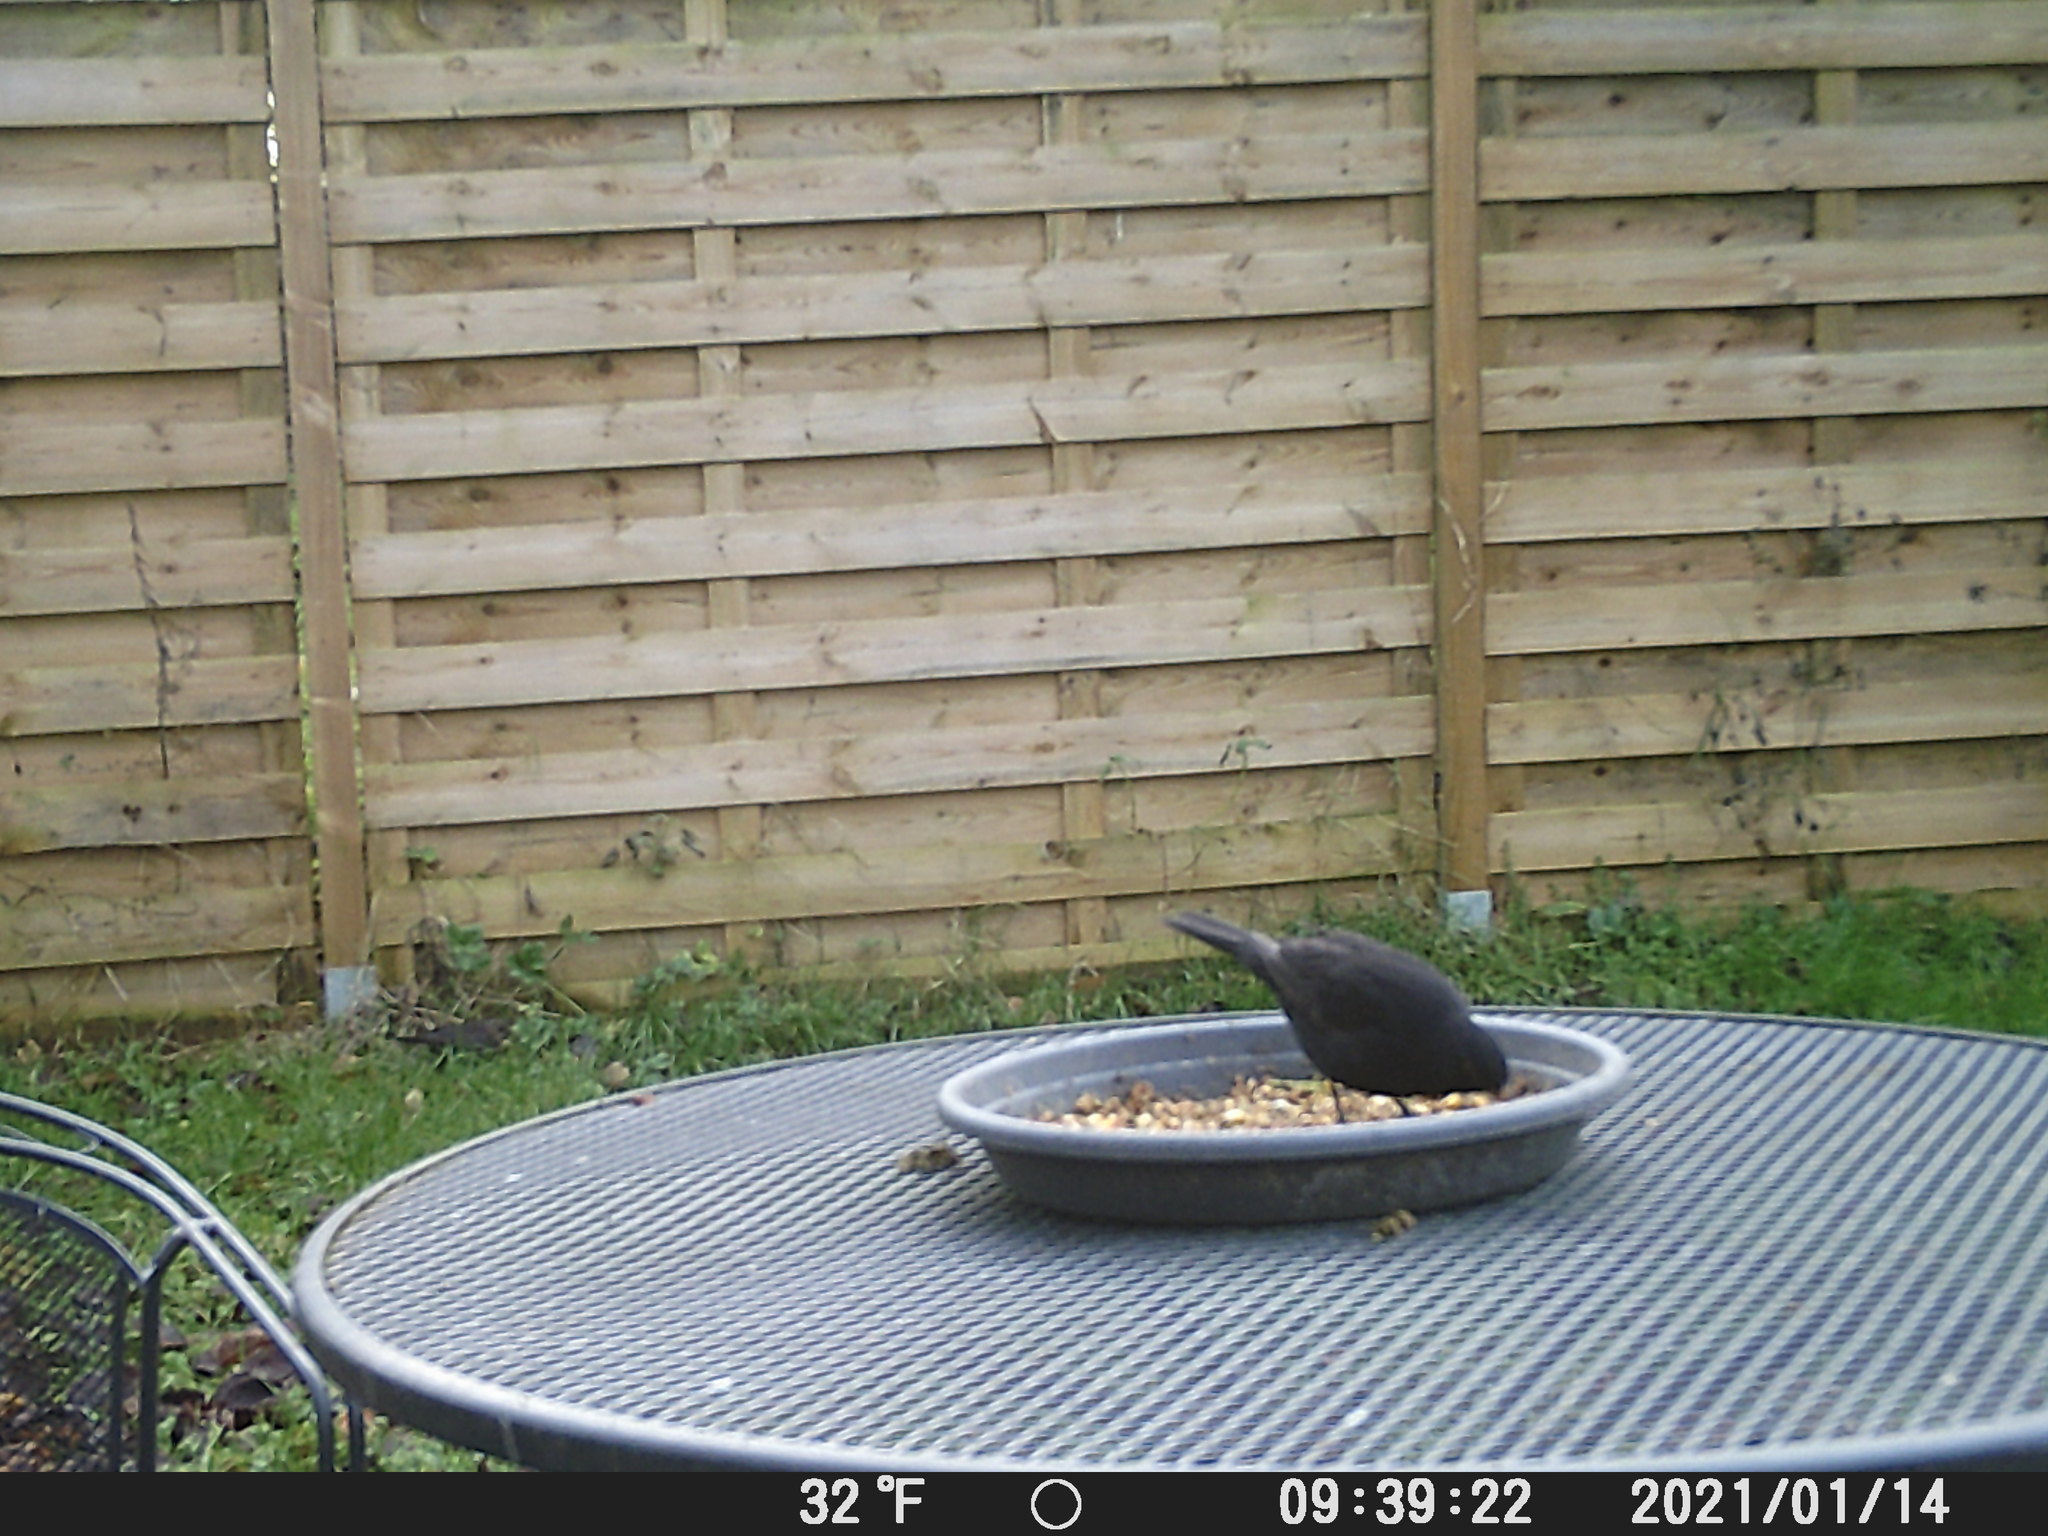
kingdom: Animalia
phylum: Chordata
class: Aves
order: Passeriformes
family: Turdidae
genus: Turdus
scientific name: Turdus merula
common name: Common blackbird
